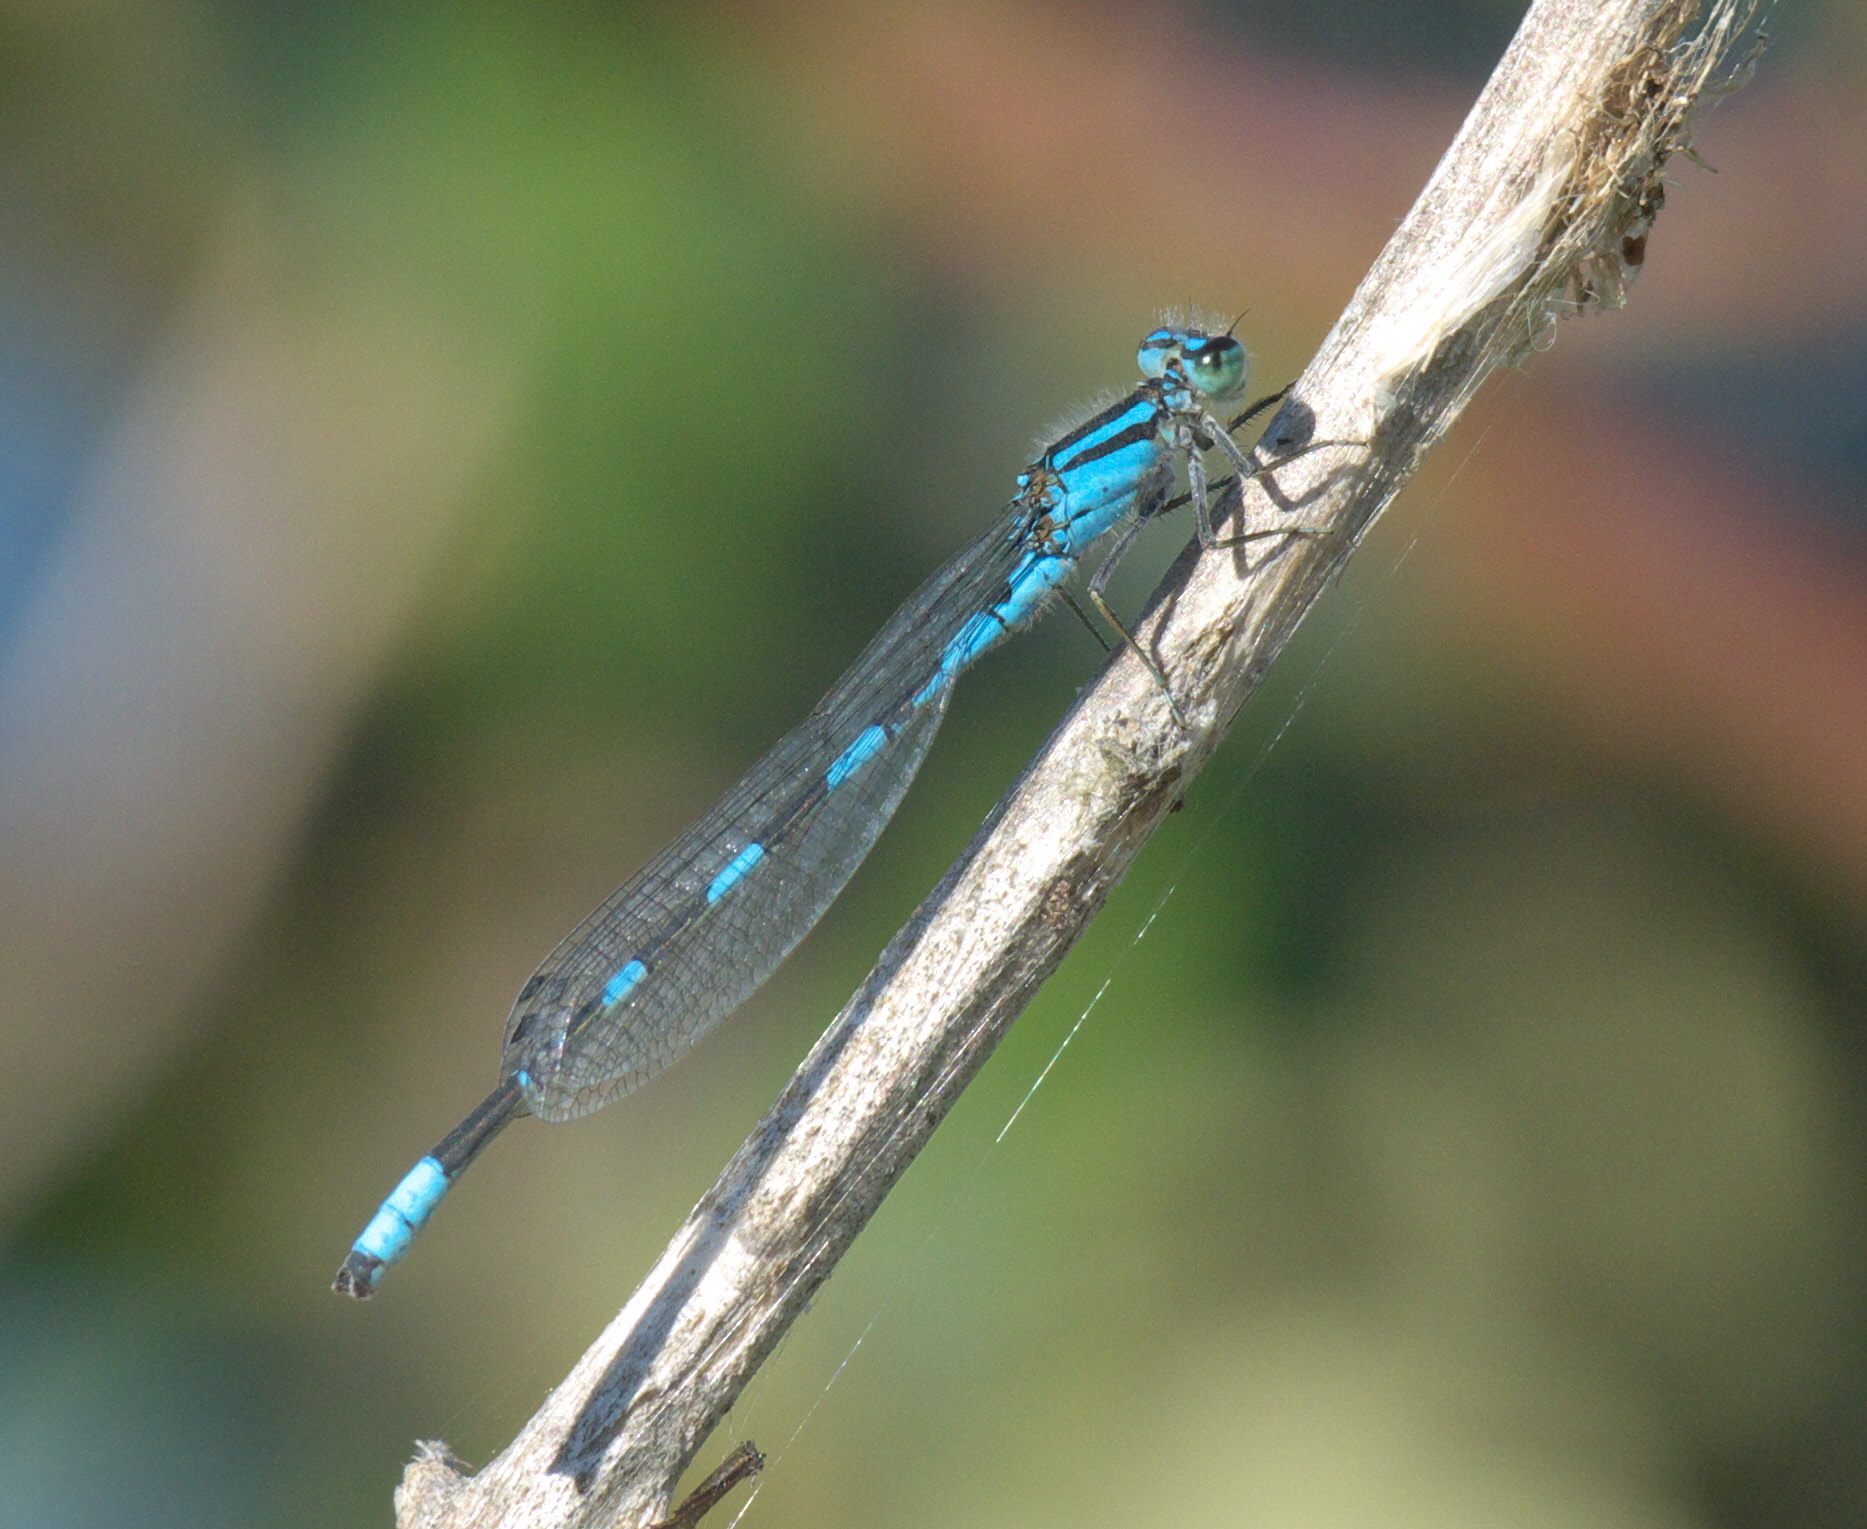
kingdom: Animalia
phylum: Arthropoda
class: Insecta
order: Odonata
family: Coenagrionidae
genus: Enallagma
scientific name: Enallagma carunculatum
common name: Tule bluet
